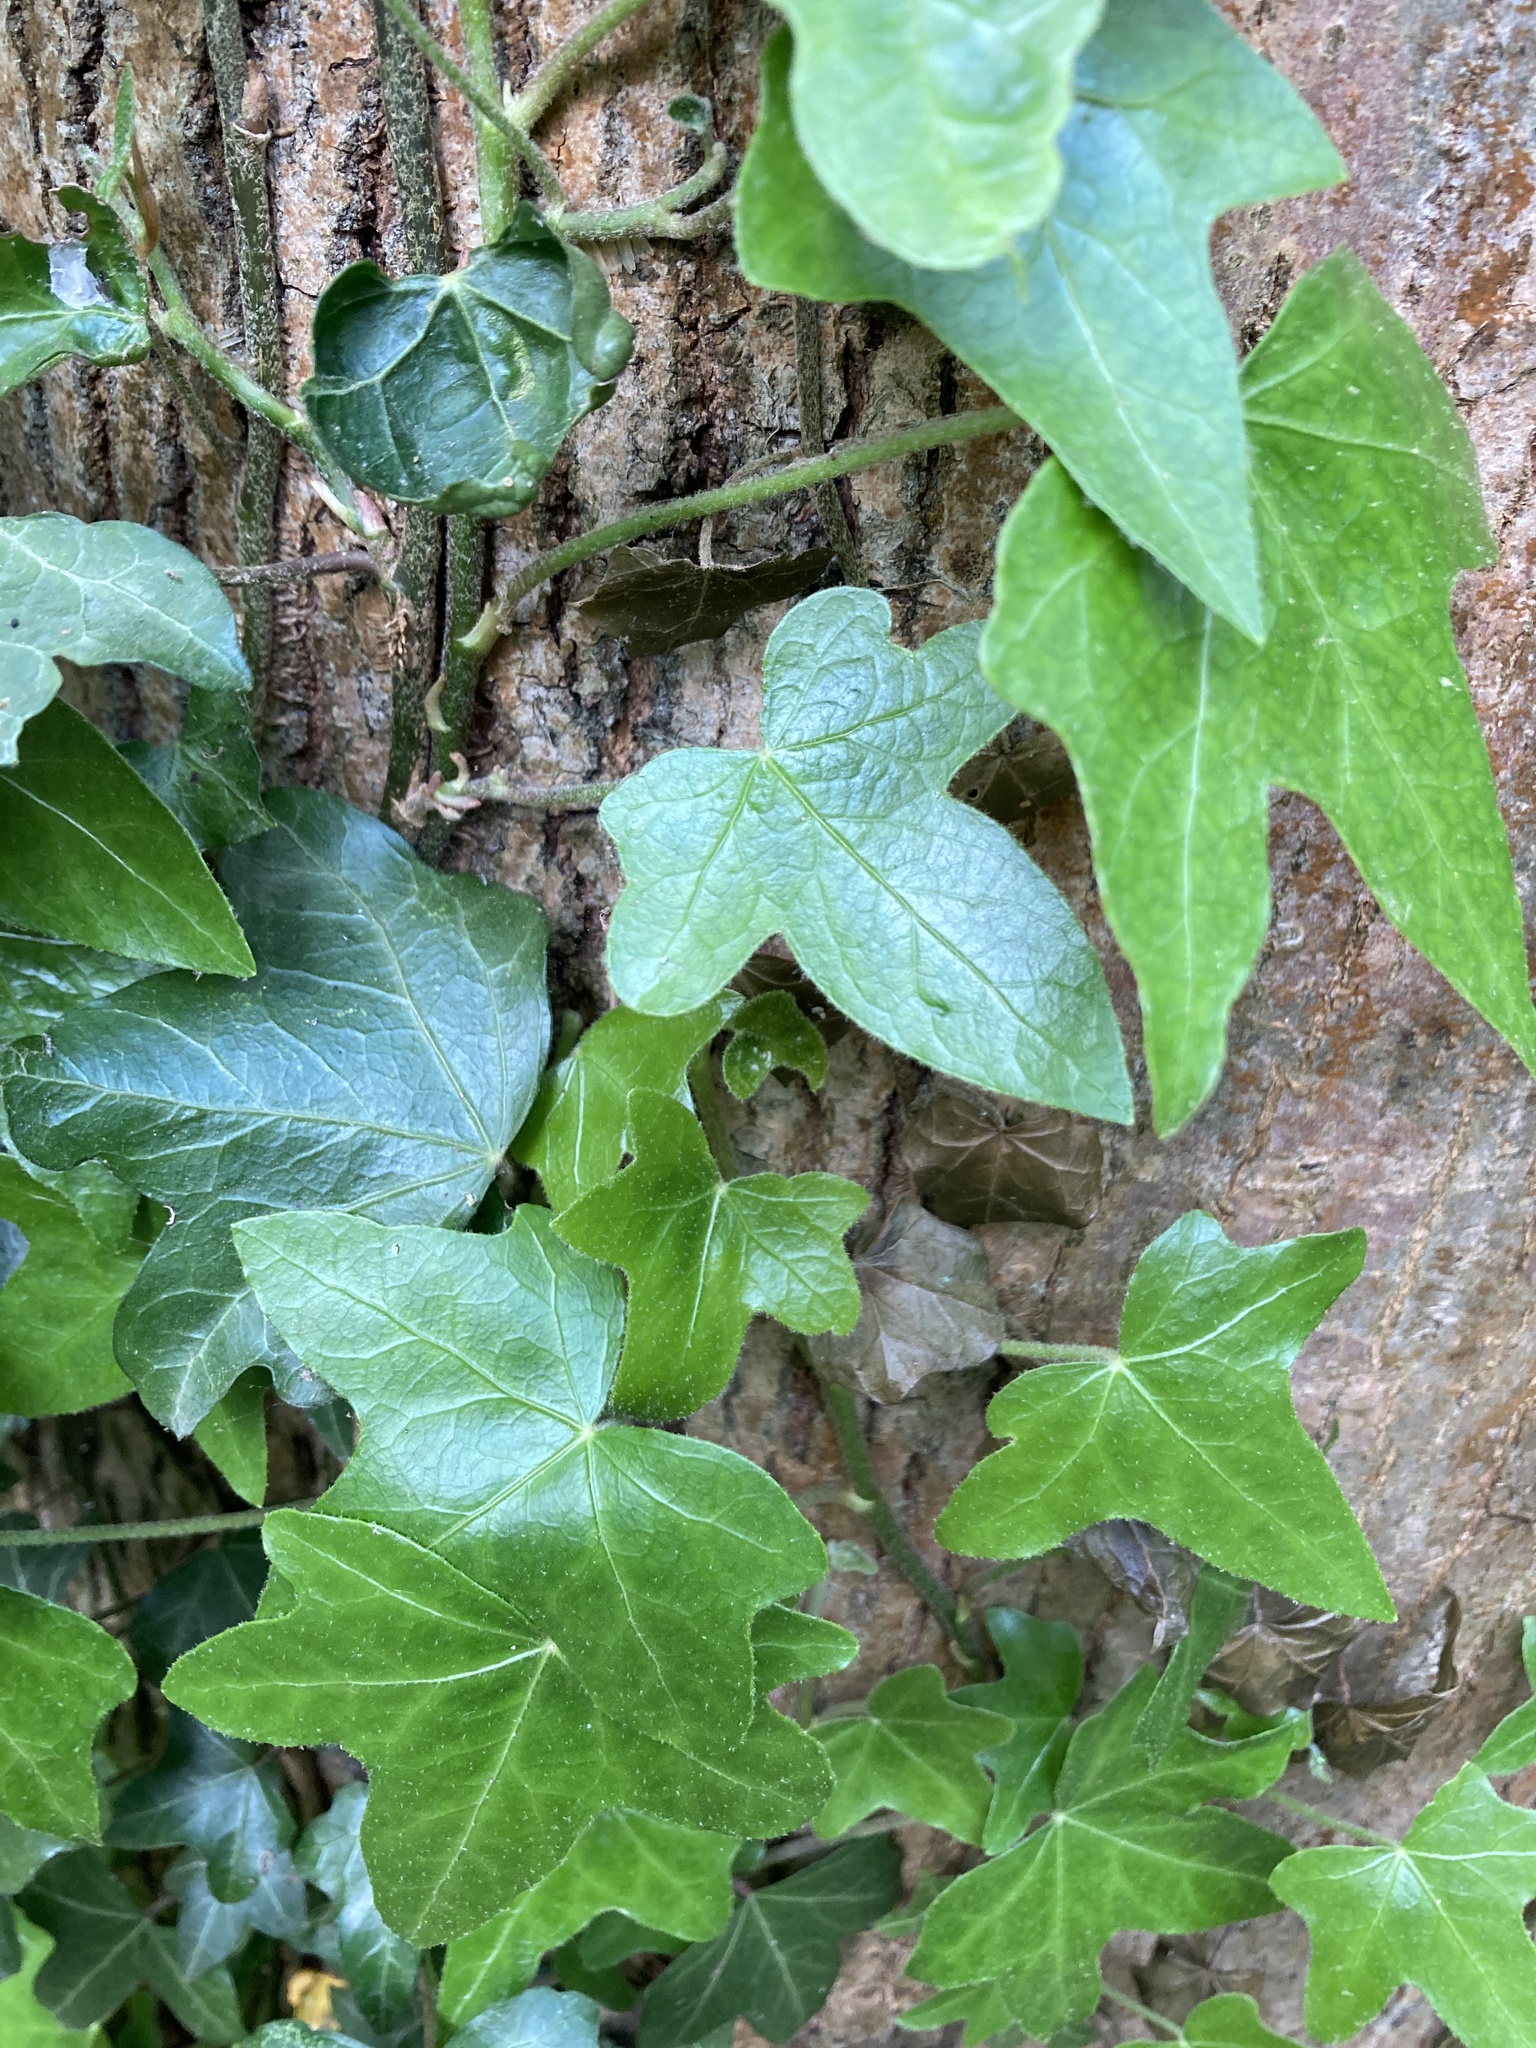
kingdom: Plantae
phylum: Tracheophyta
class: Magnoliopsida
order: Apiales
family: Araliaceae
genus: Hedera
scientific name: Hedera helix
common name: Ivy
